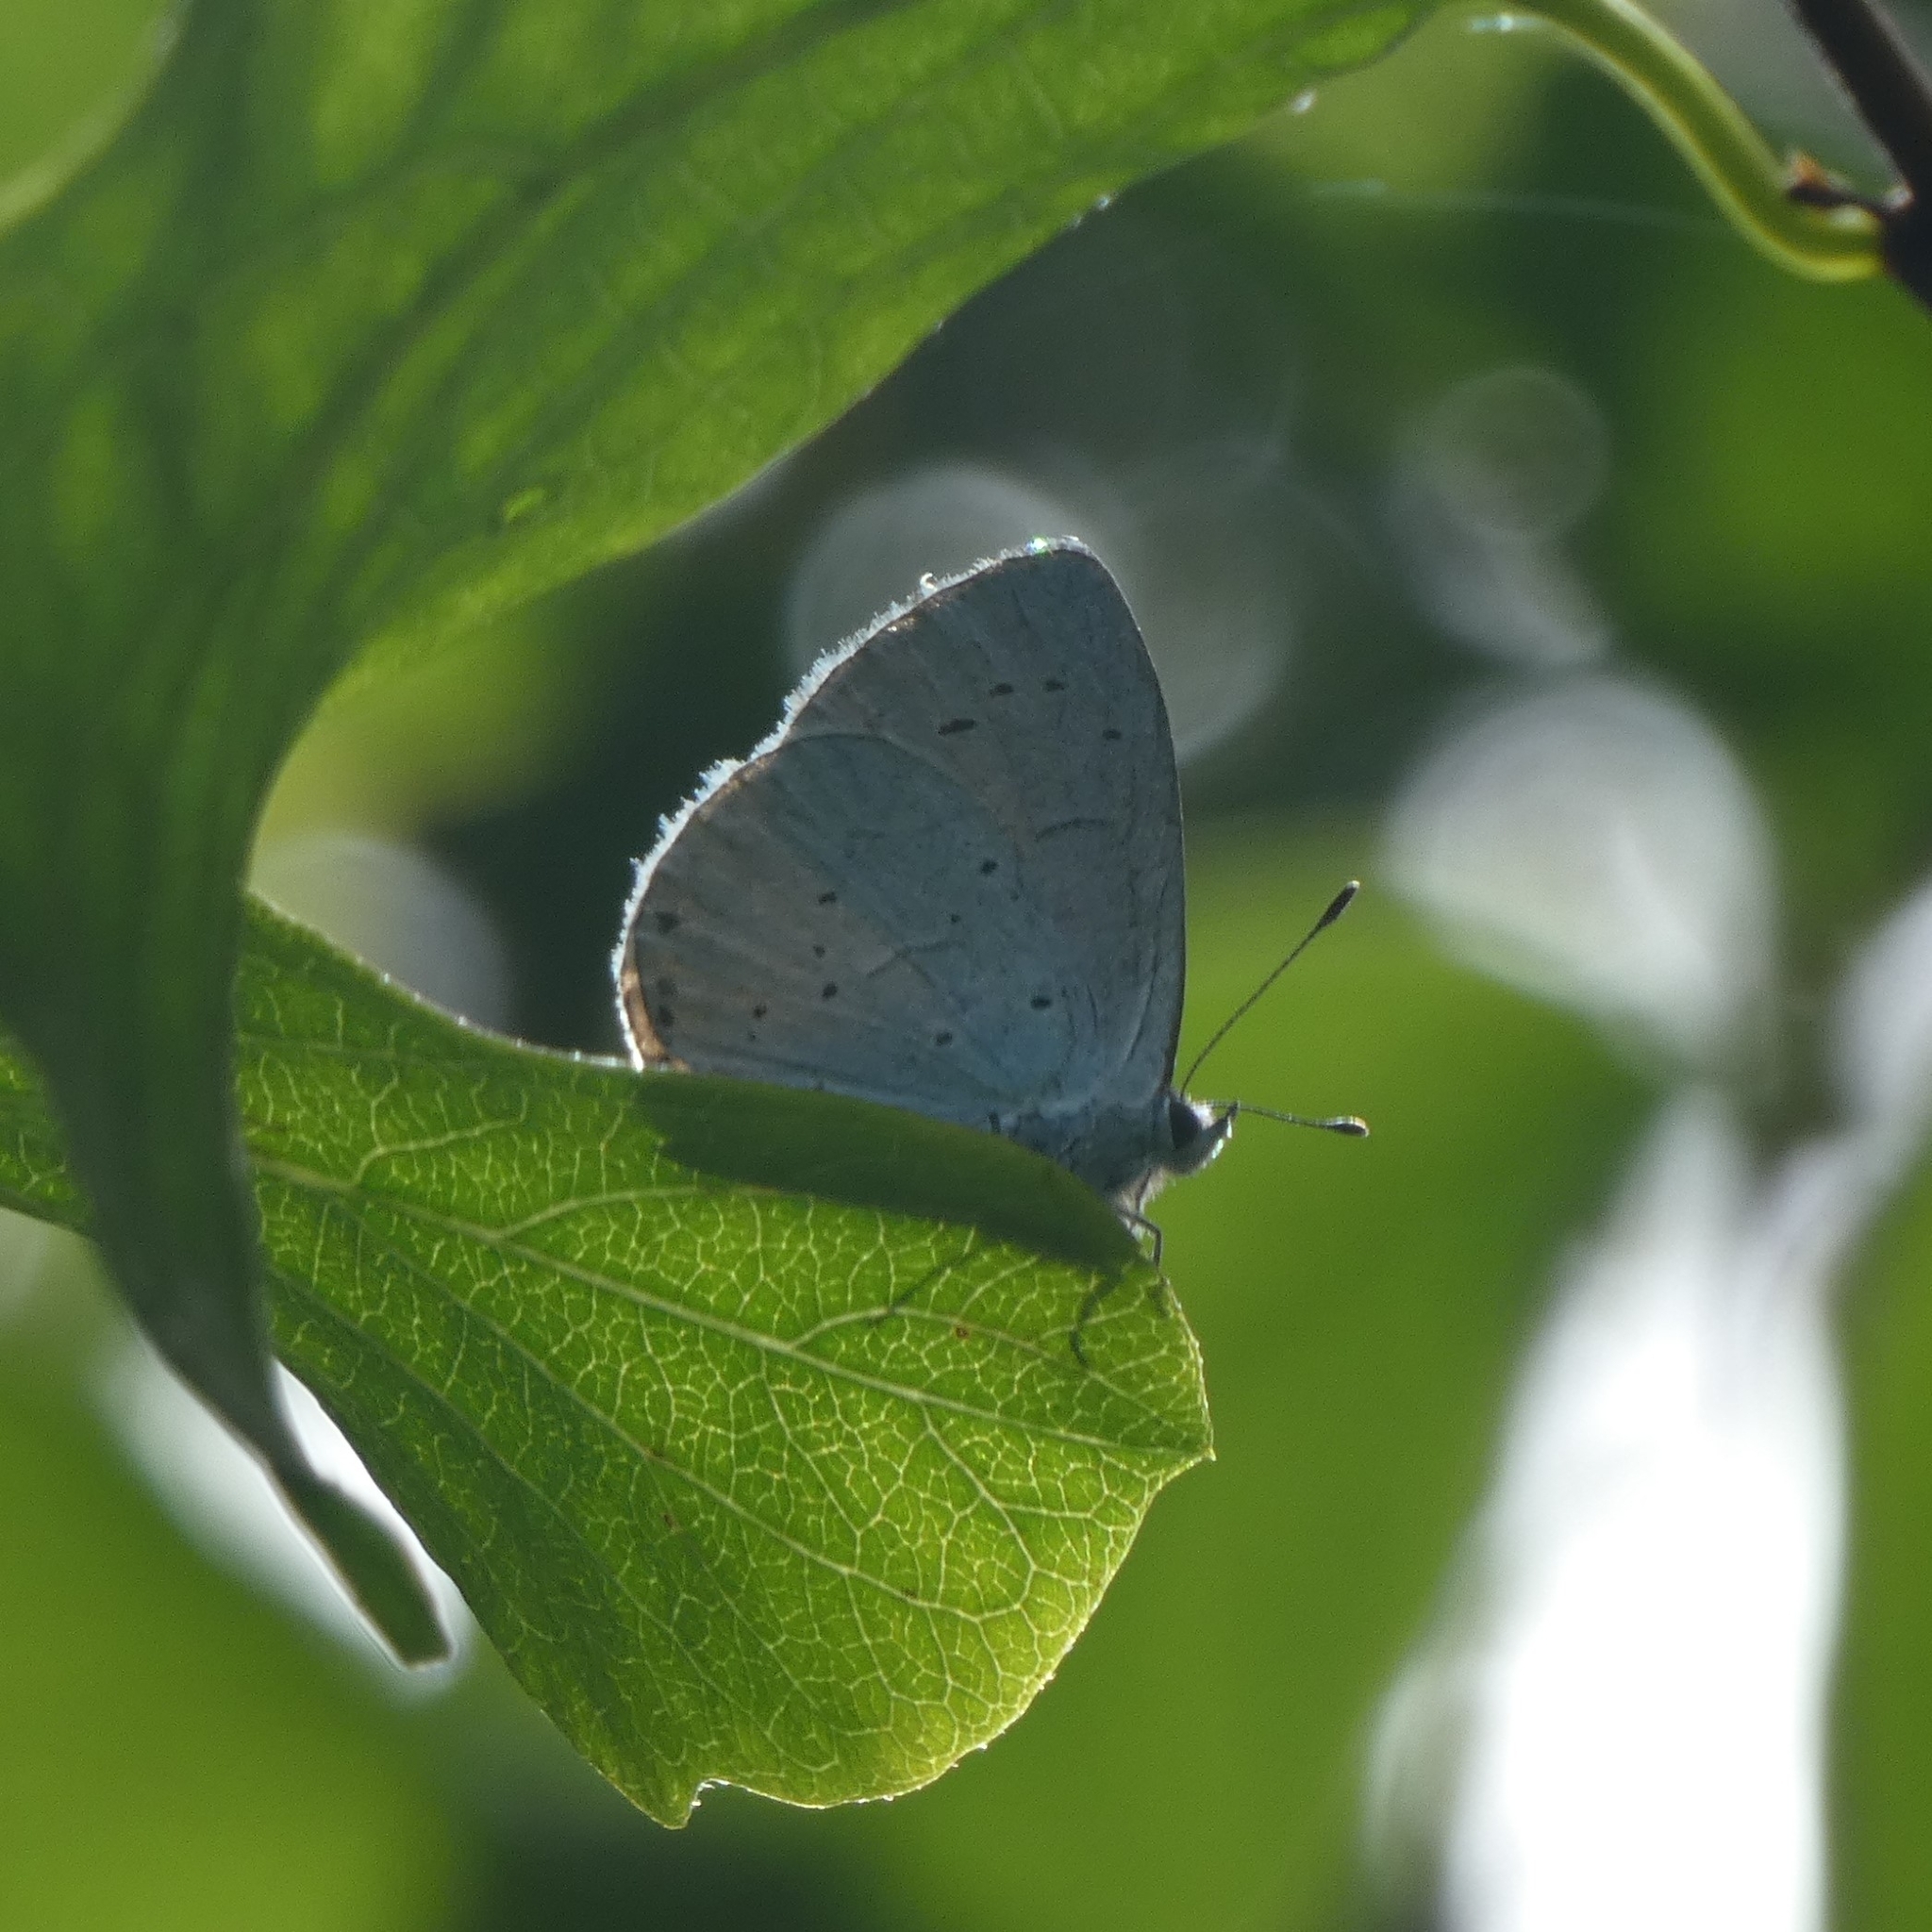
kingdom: Animalia
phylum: Arthropoda
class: Insecta
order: Lepidoptera
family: Lycaenidae
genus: Celastrina
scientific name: Celastrina argiolus
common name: Holly blue
